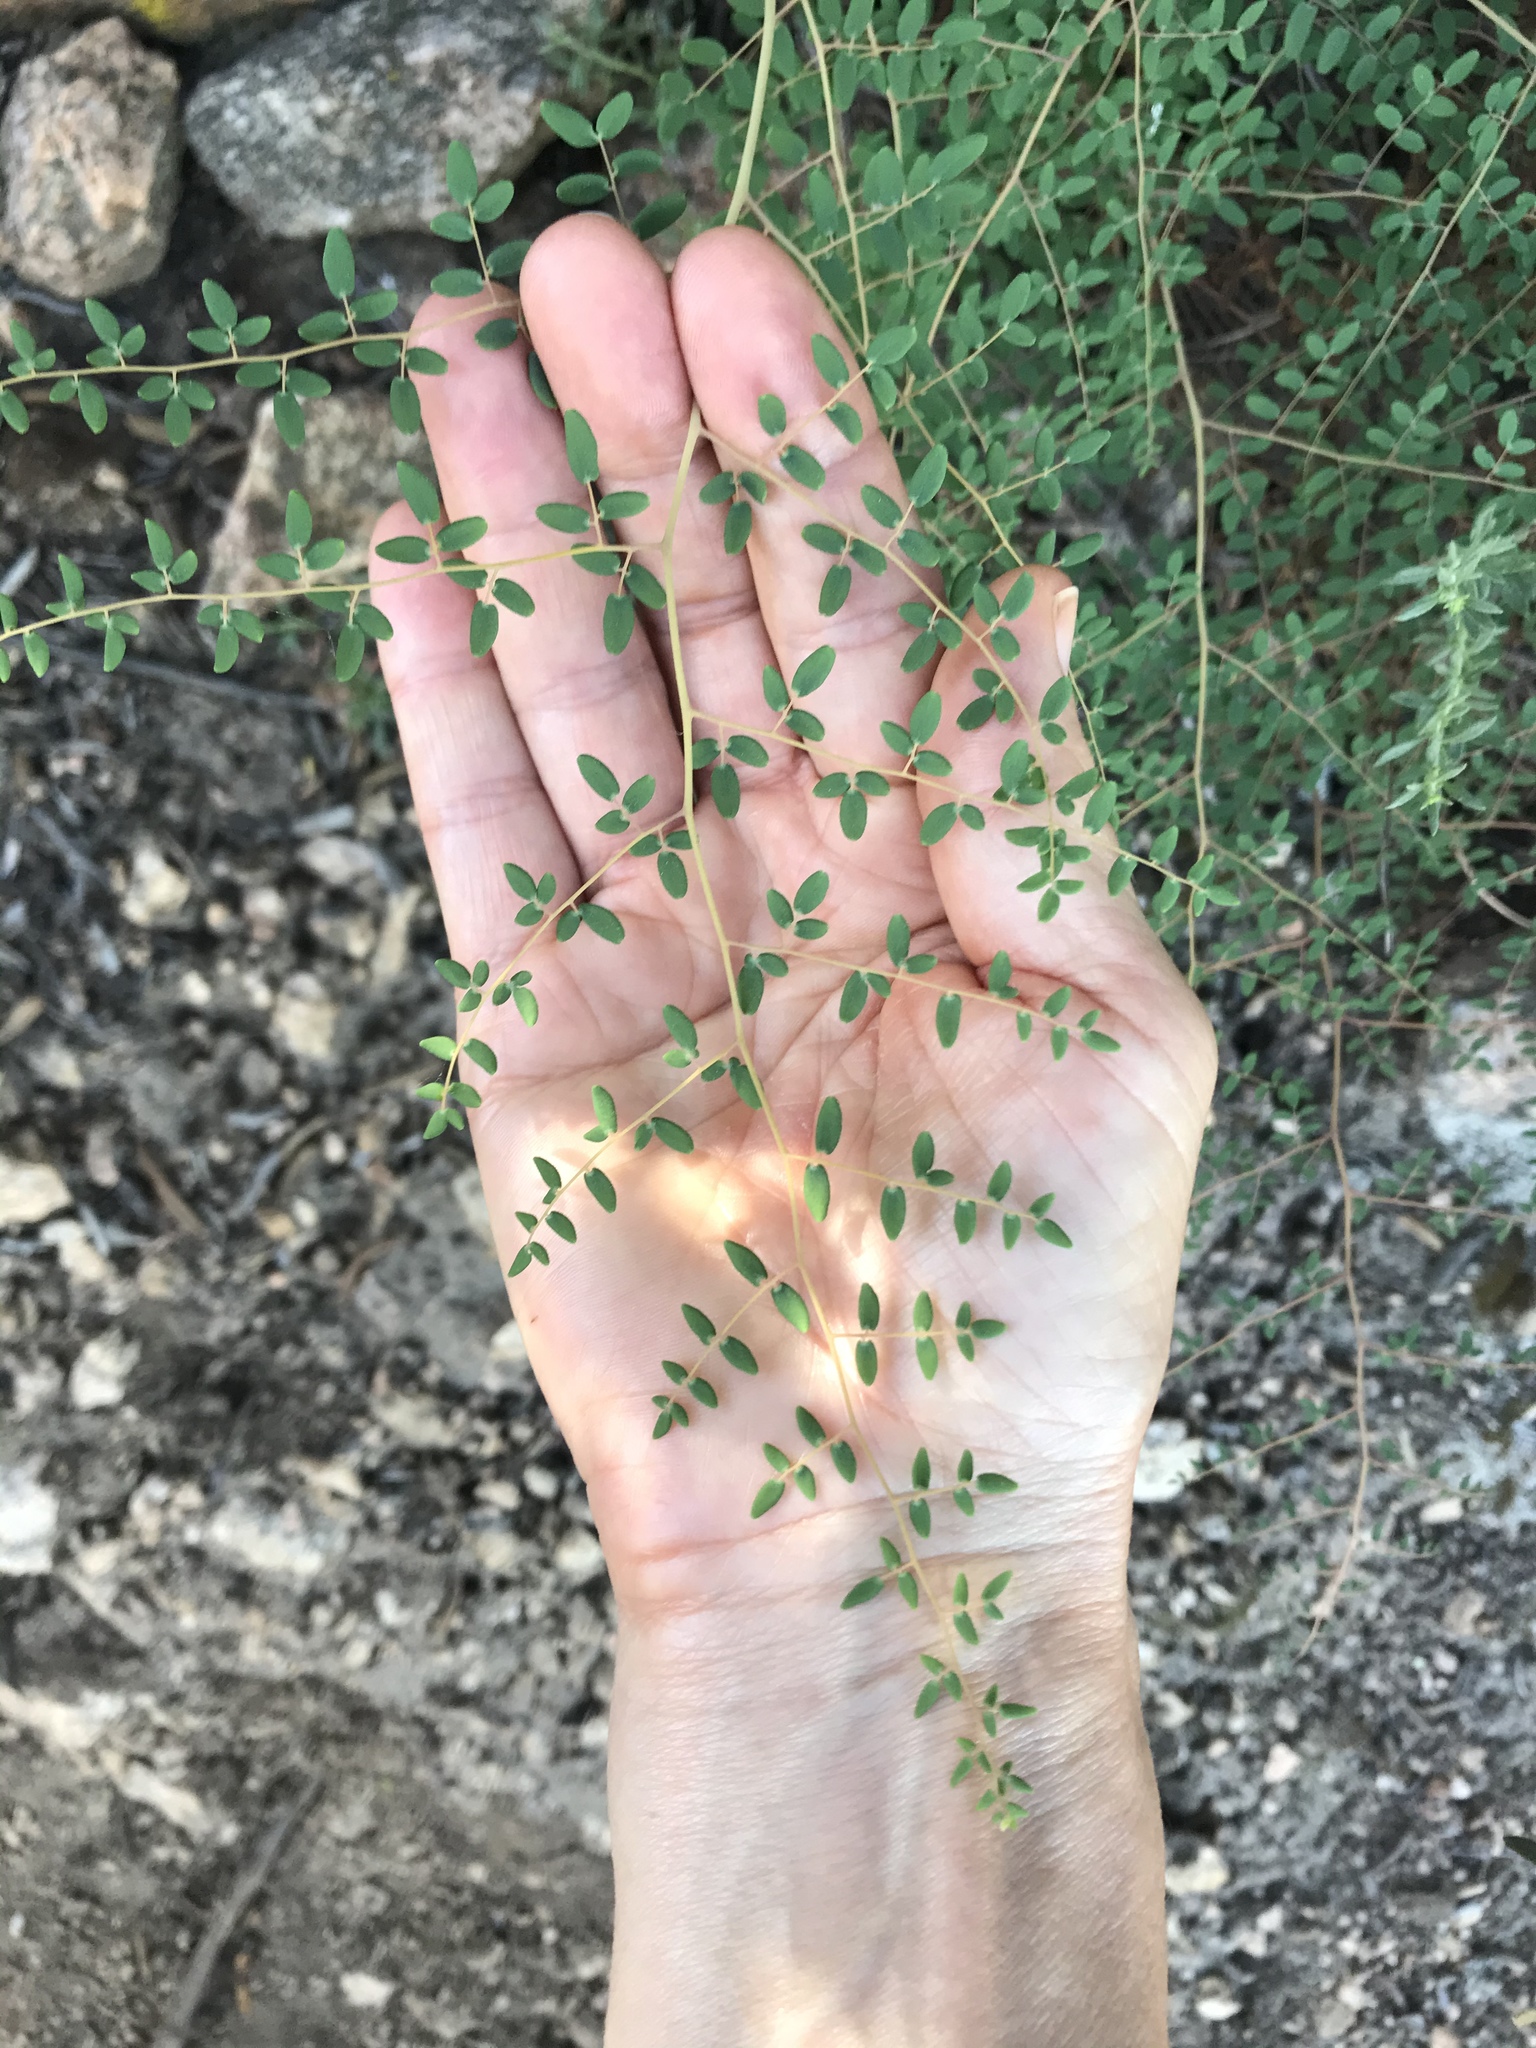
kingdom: Plantae
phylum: Tracheophyta
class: Polypodiopsida
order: Polypodiales
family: Pteridaceae
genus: Pellaea
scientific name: Pellaea andromedifolia
